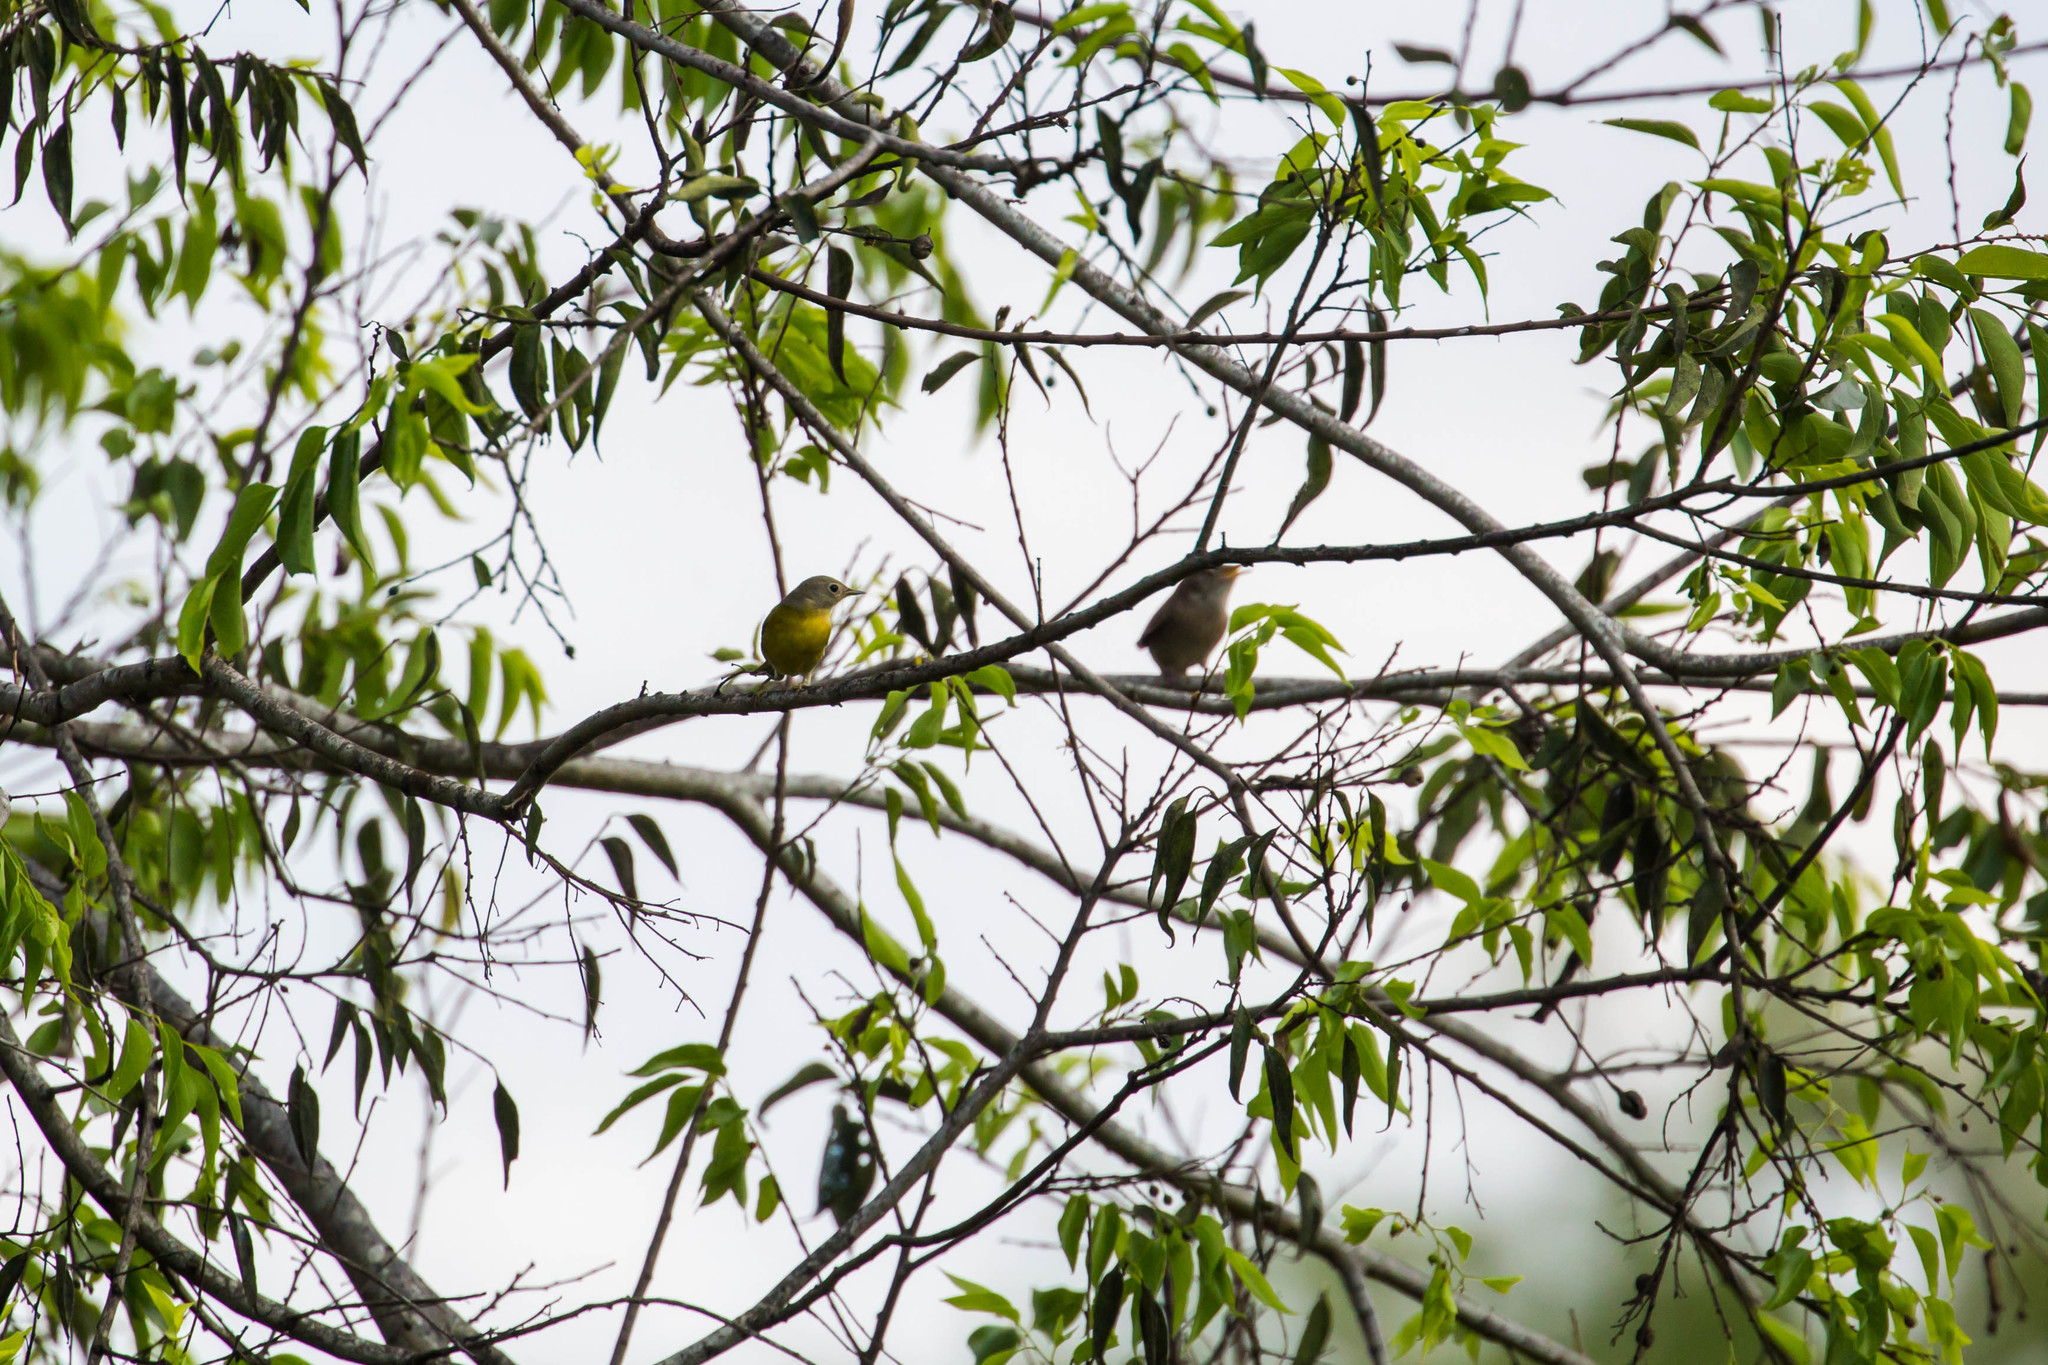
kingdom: Animalia
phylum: Chordata
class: Aves
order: Passeriformes
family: Parulidae
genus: Leiothlypis
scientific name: Leiothlypis ruficapilla
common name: Nashville warbler
